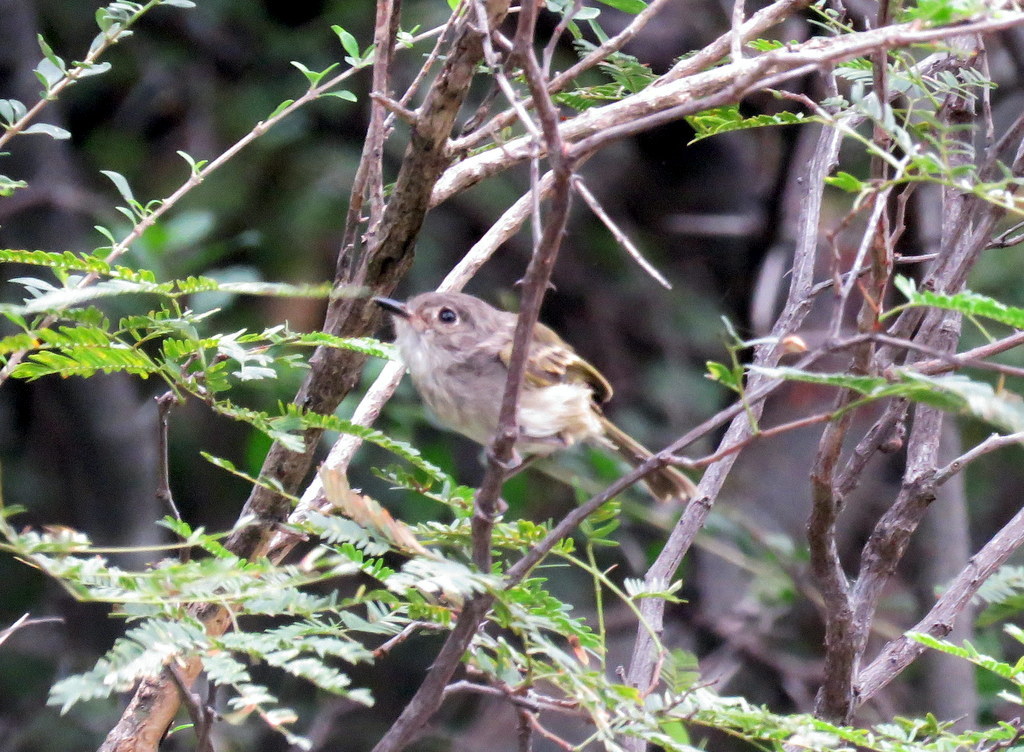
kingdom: Animalia
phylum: Chordata
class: Aves
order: Passeriformes
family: Tyrannidae
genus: Hemitriccus
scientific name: Hemitriccus margaritaceiventer
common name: Pearly-vented tody-tyrant
